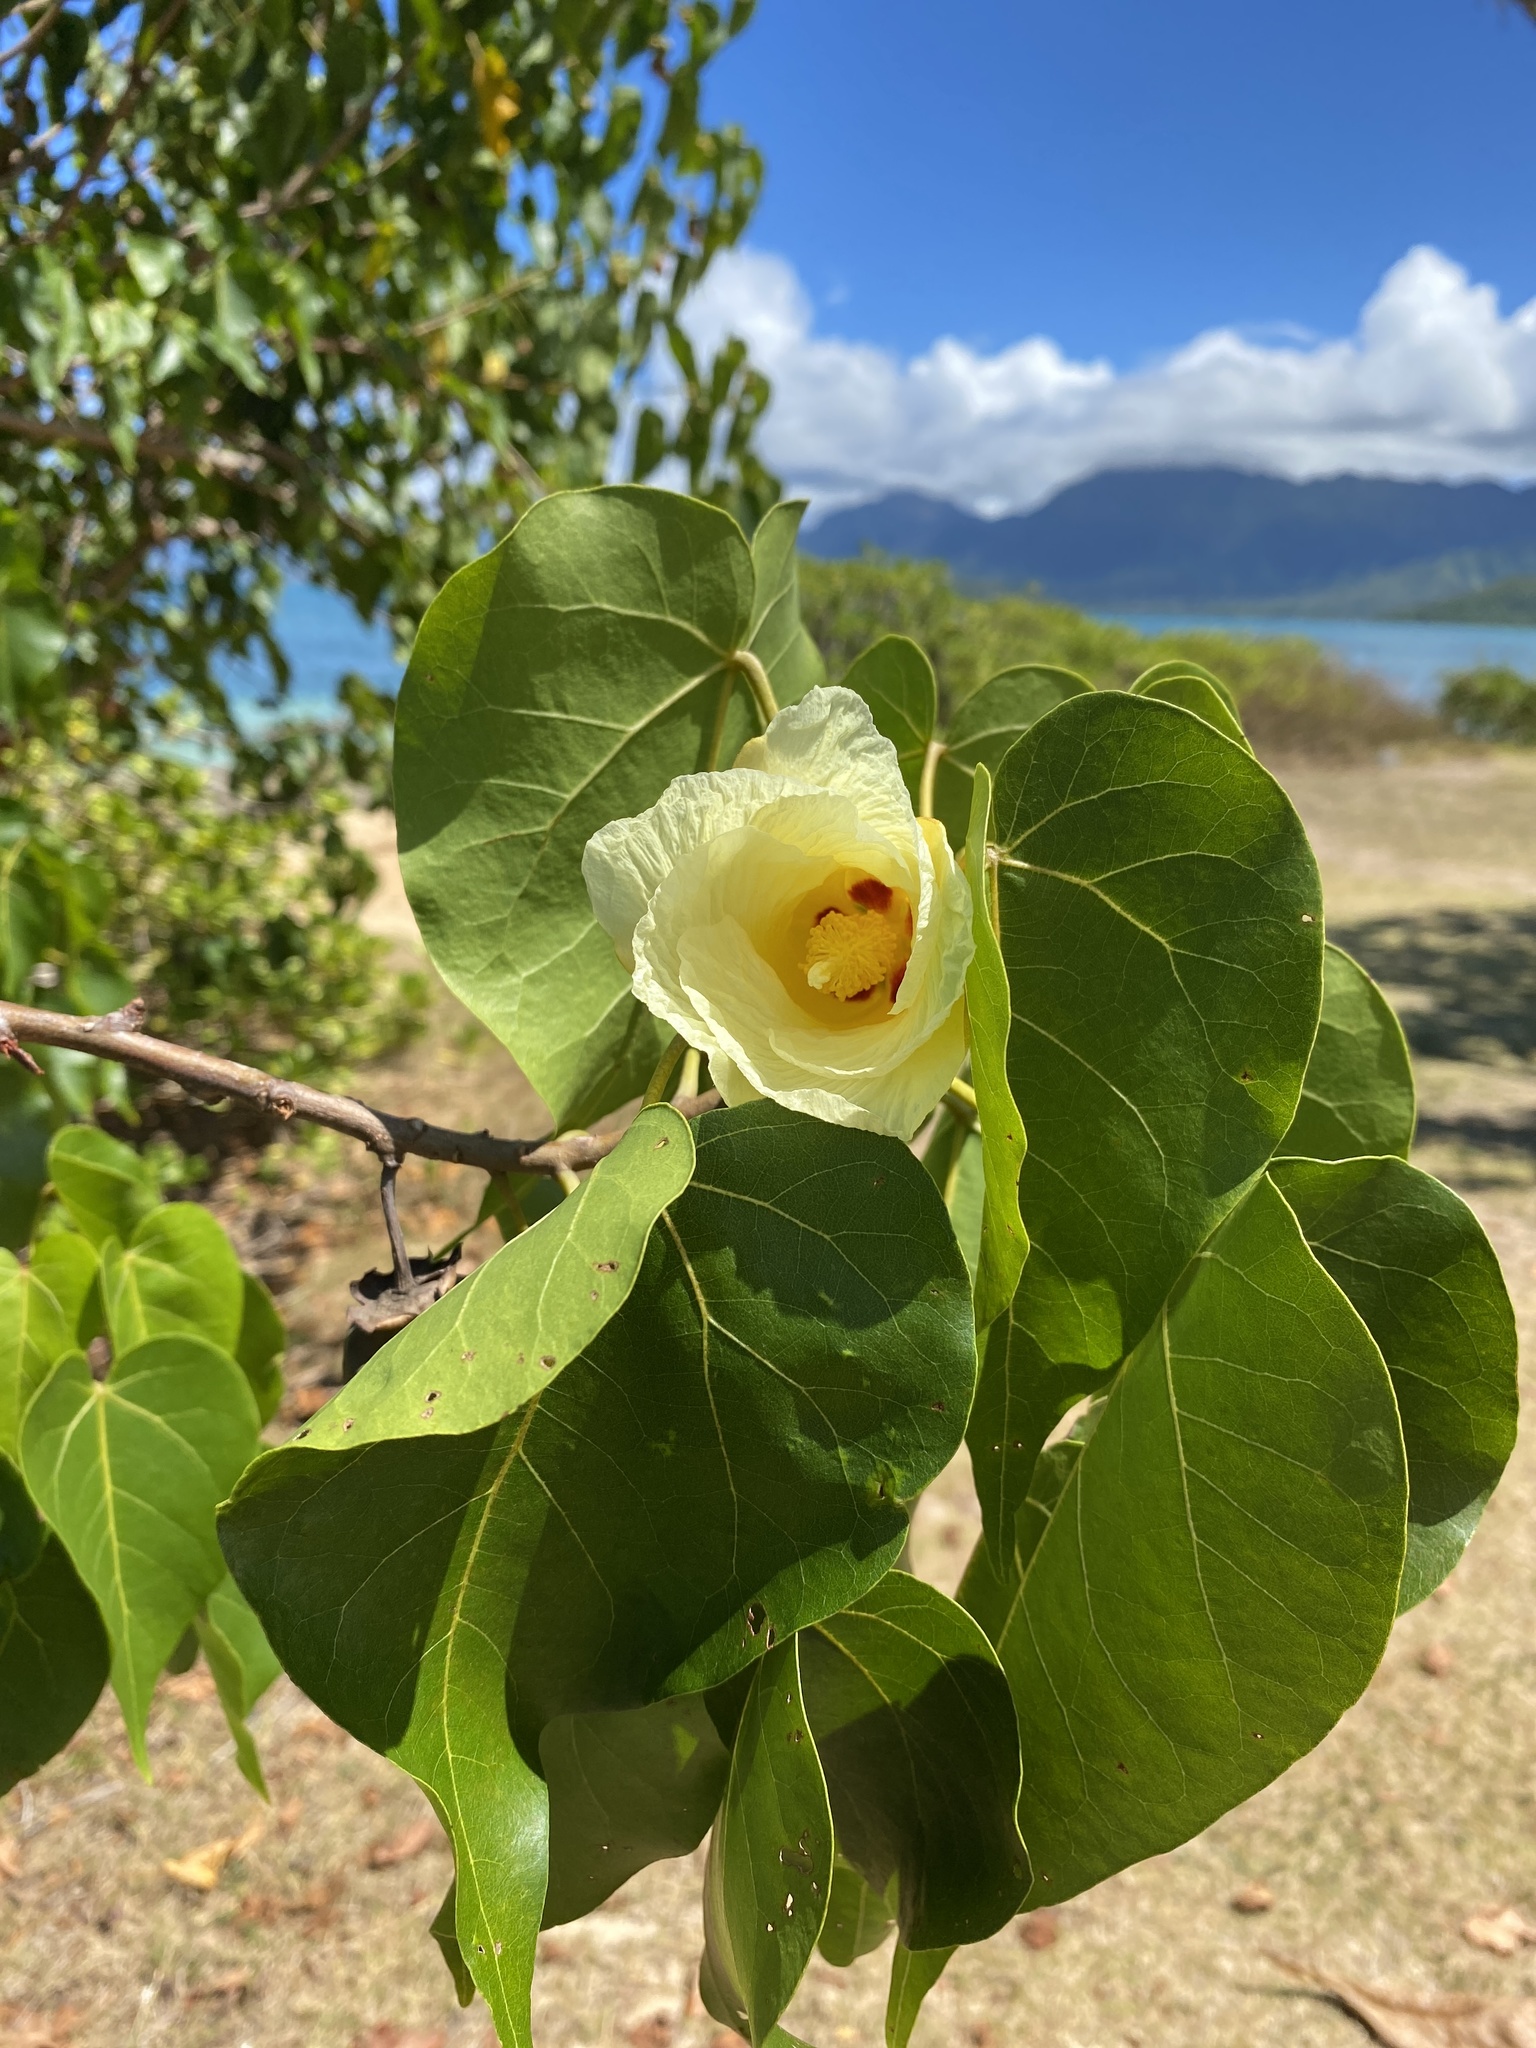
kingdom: Plantae
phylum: Tracheophyta
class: Magnoliopsida
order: Malvales
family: Malvaceae
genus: Thespesia
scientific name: Thespesia populnea
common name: Seaside mahoe
